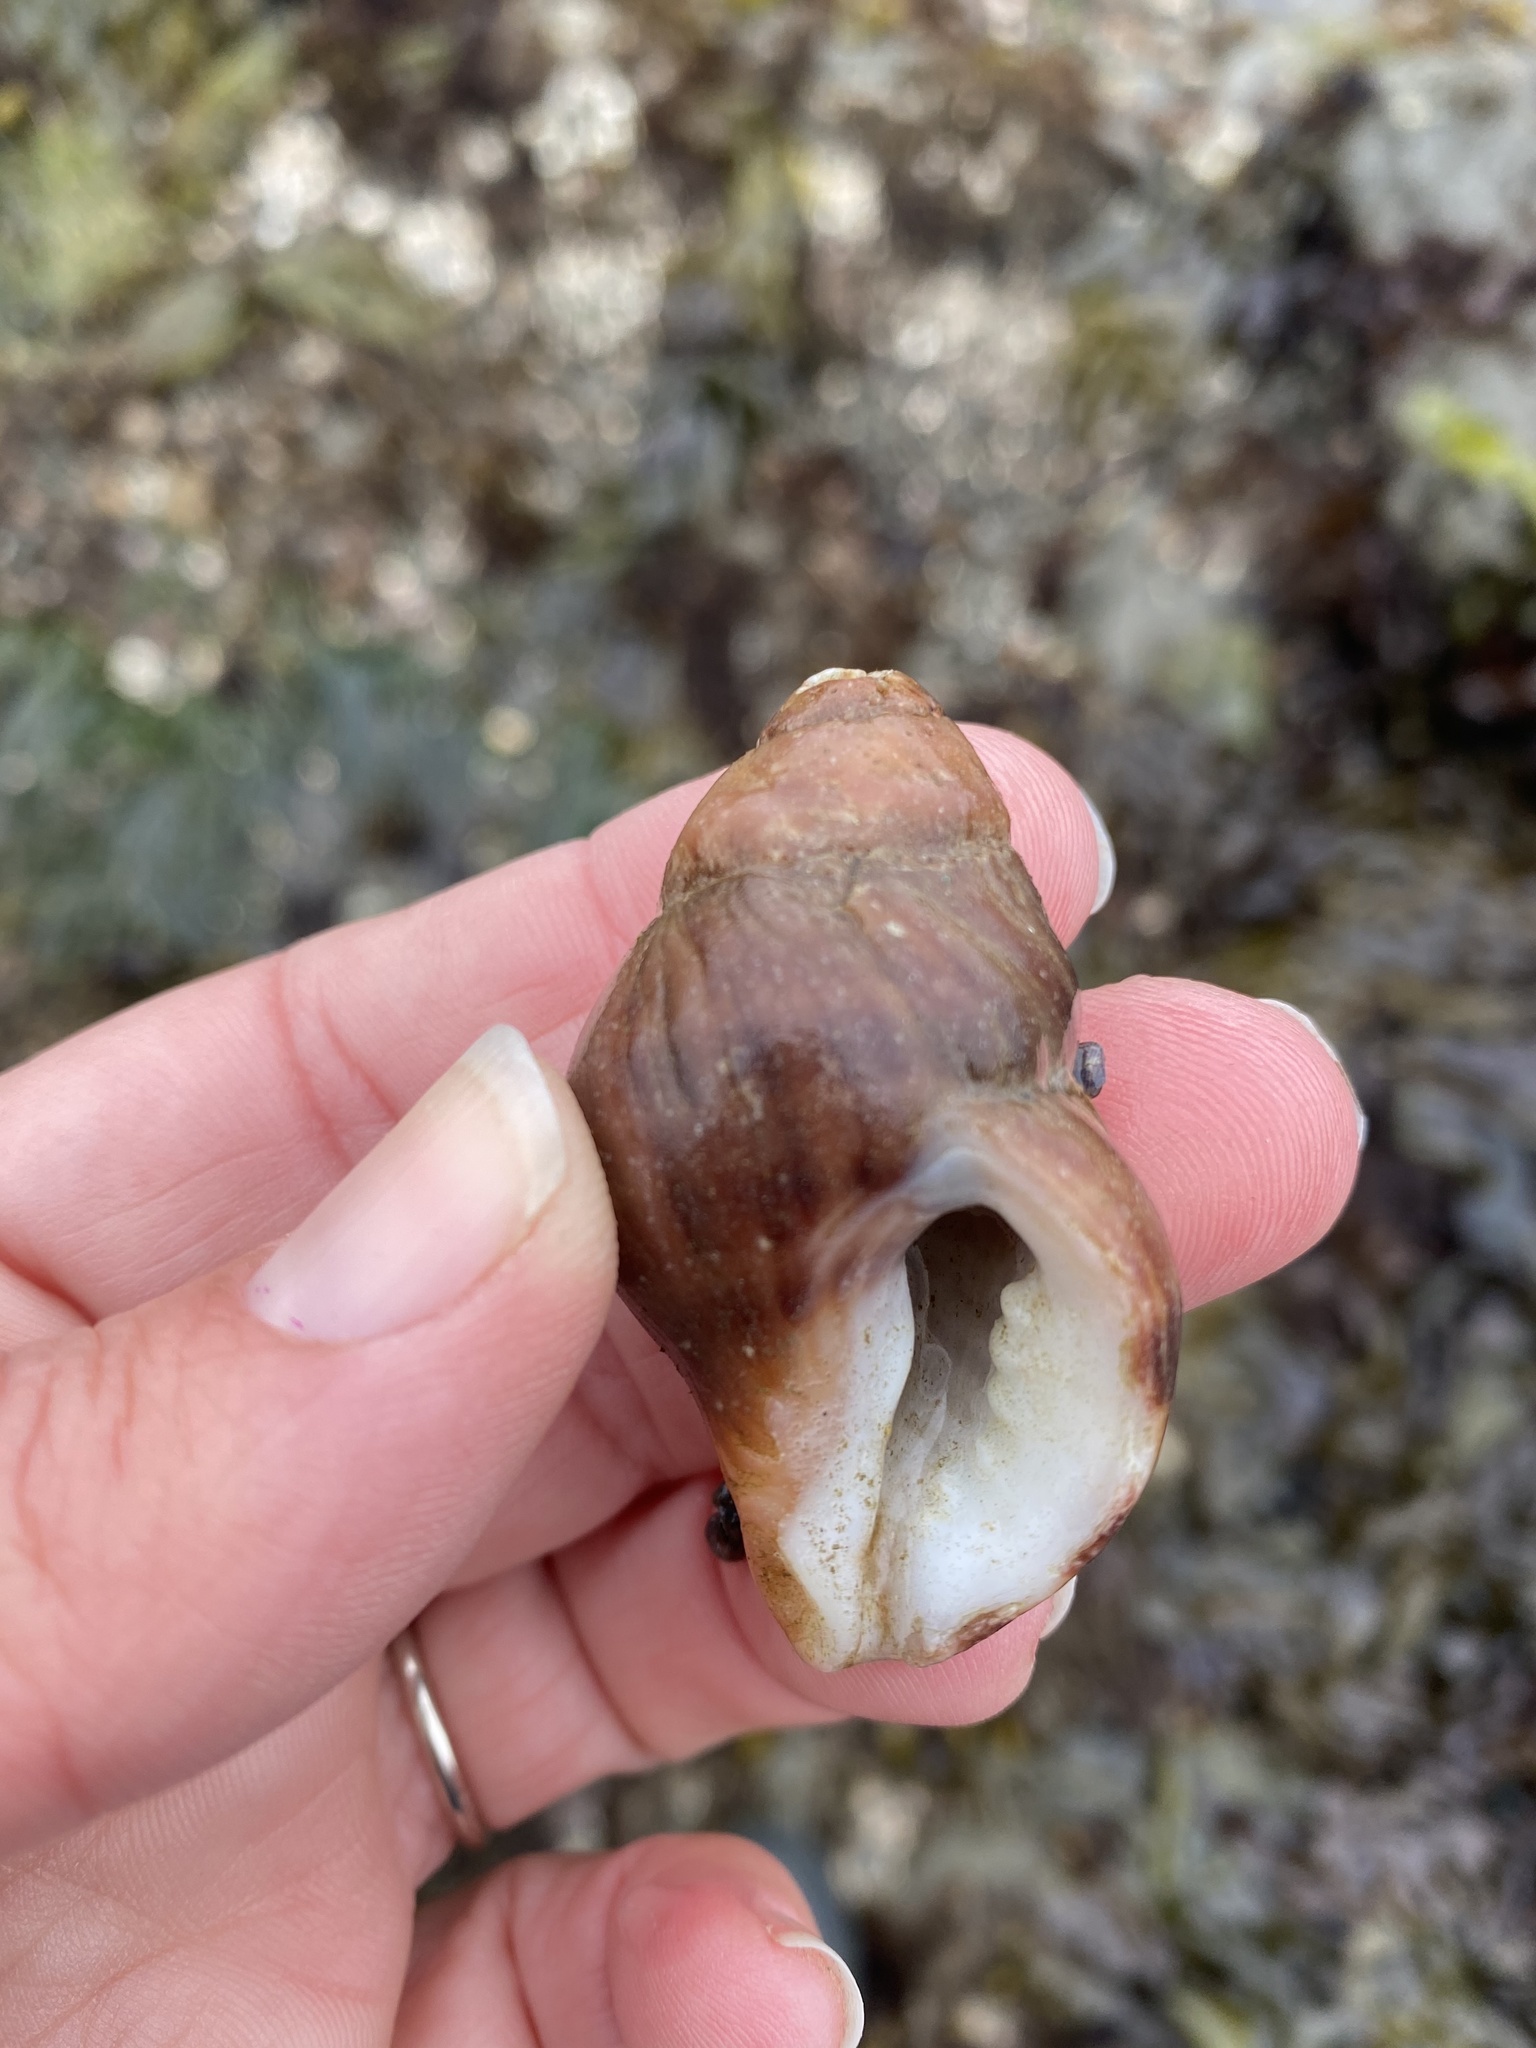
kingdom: Animalia
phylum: Mollusca
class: Gastropoda
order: Neogastropoda
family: Muricidae
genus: Nucella
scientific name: Nucella lamellosa
